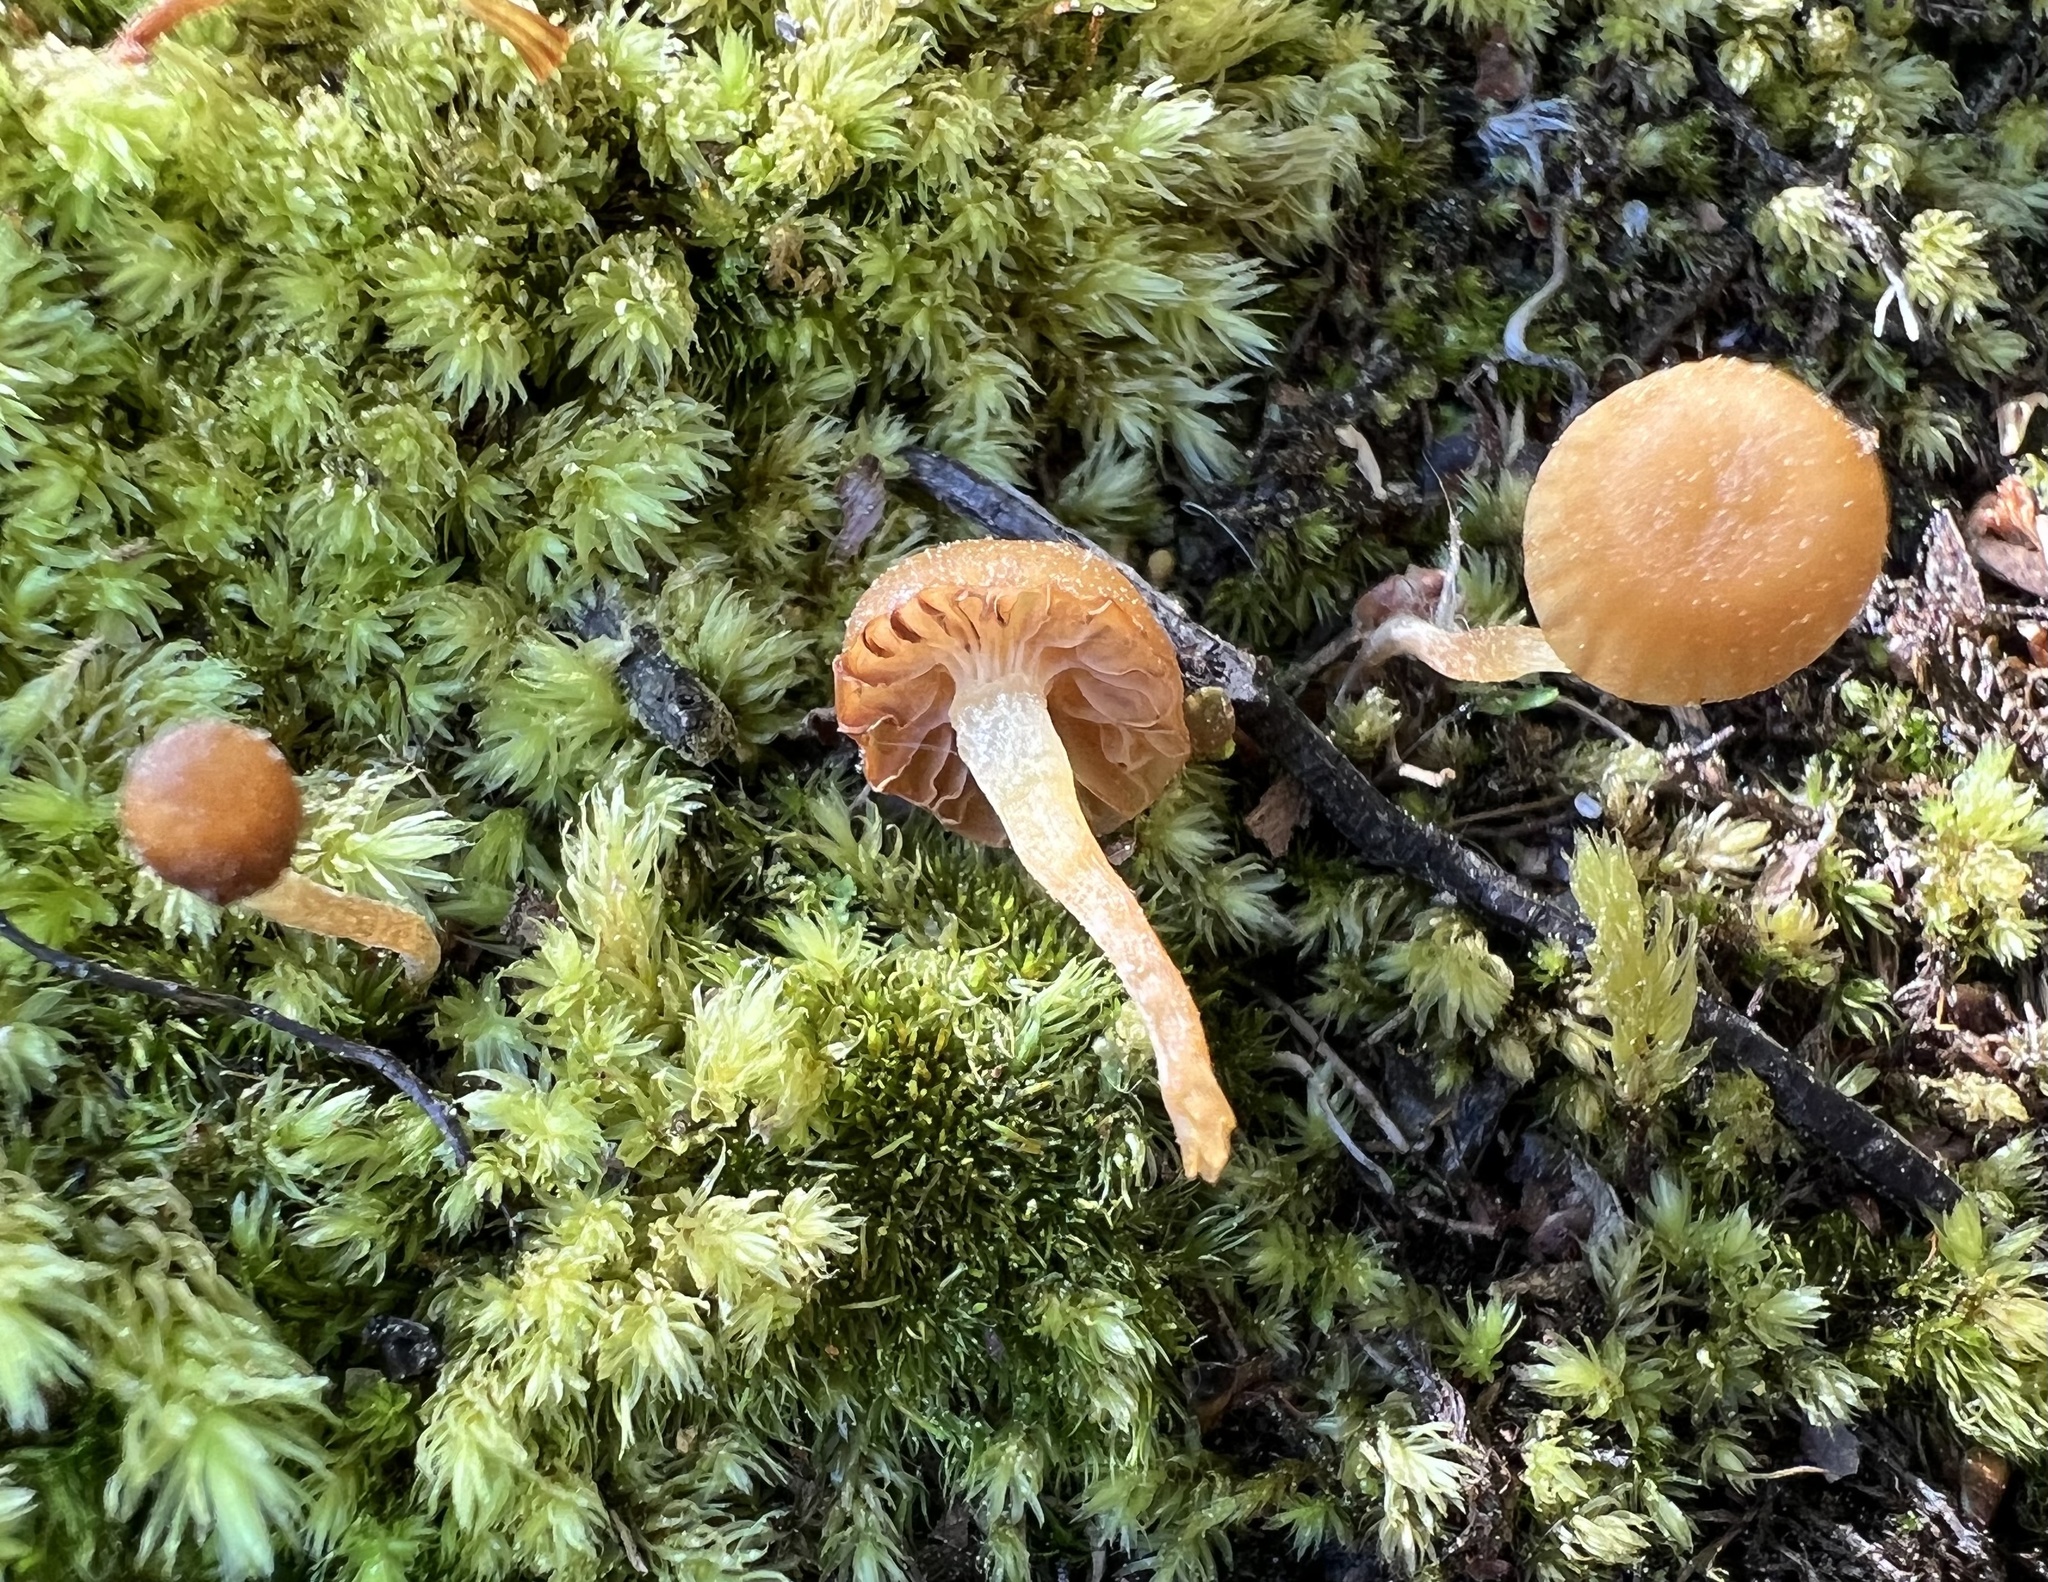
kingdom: Fungi
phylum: Basidiomycota
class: Agaricomycetes
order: Agaricales
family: Hymenogastraceae
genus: Galerina
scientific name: Galerina hypnorum
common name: Moss bell
